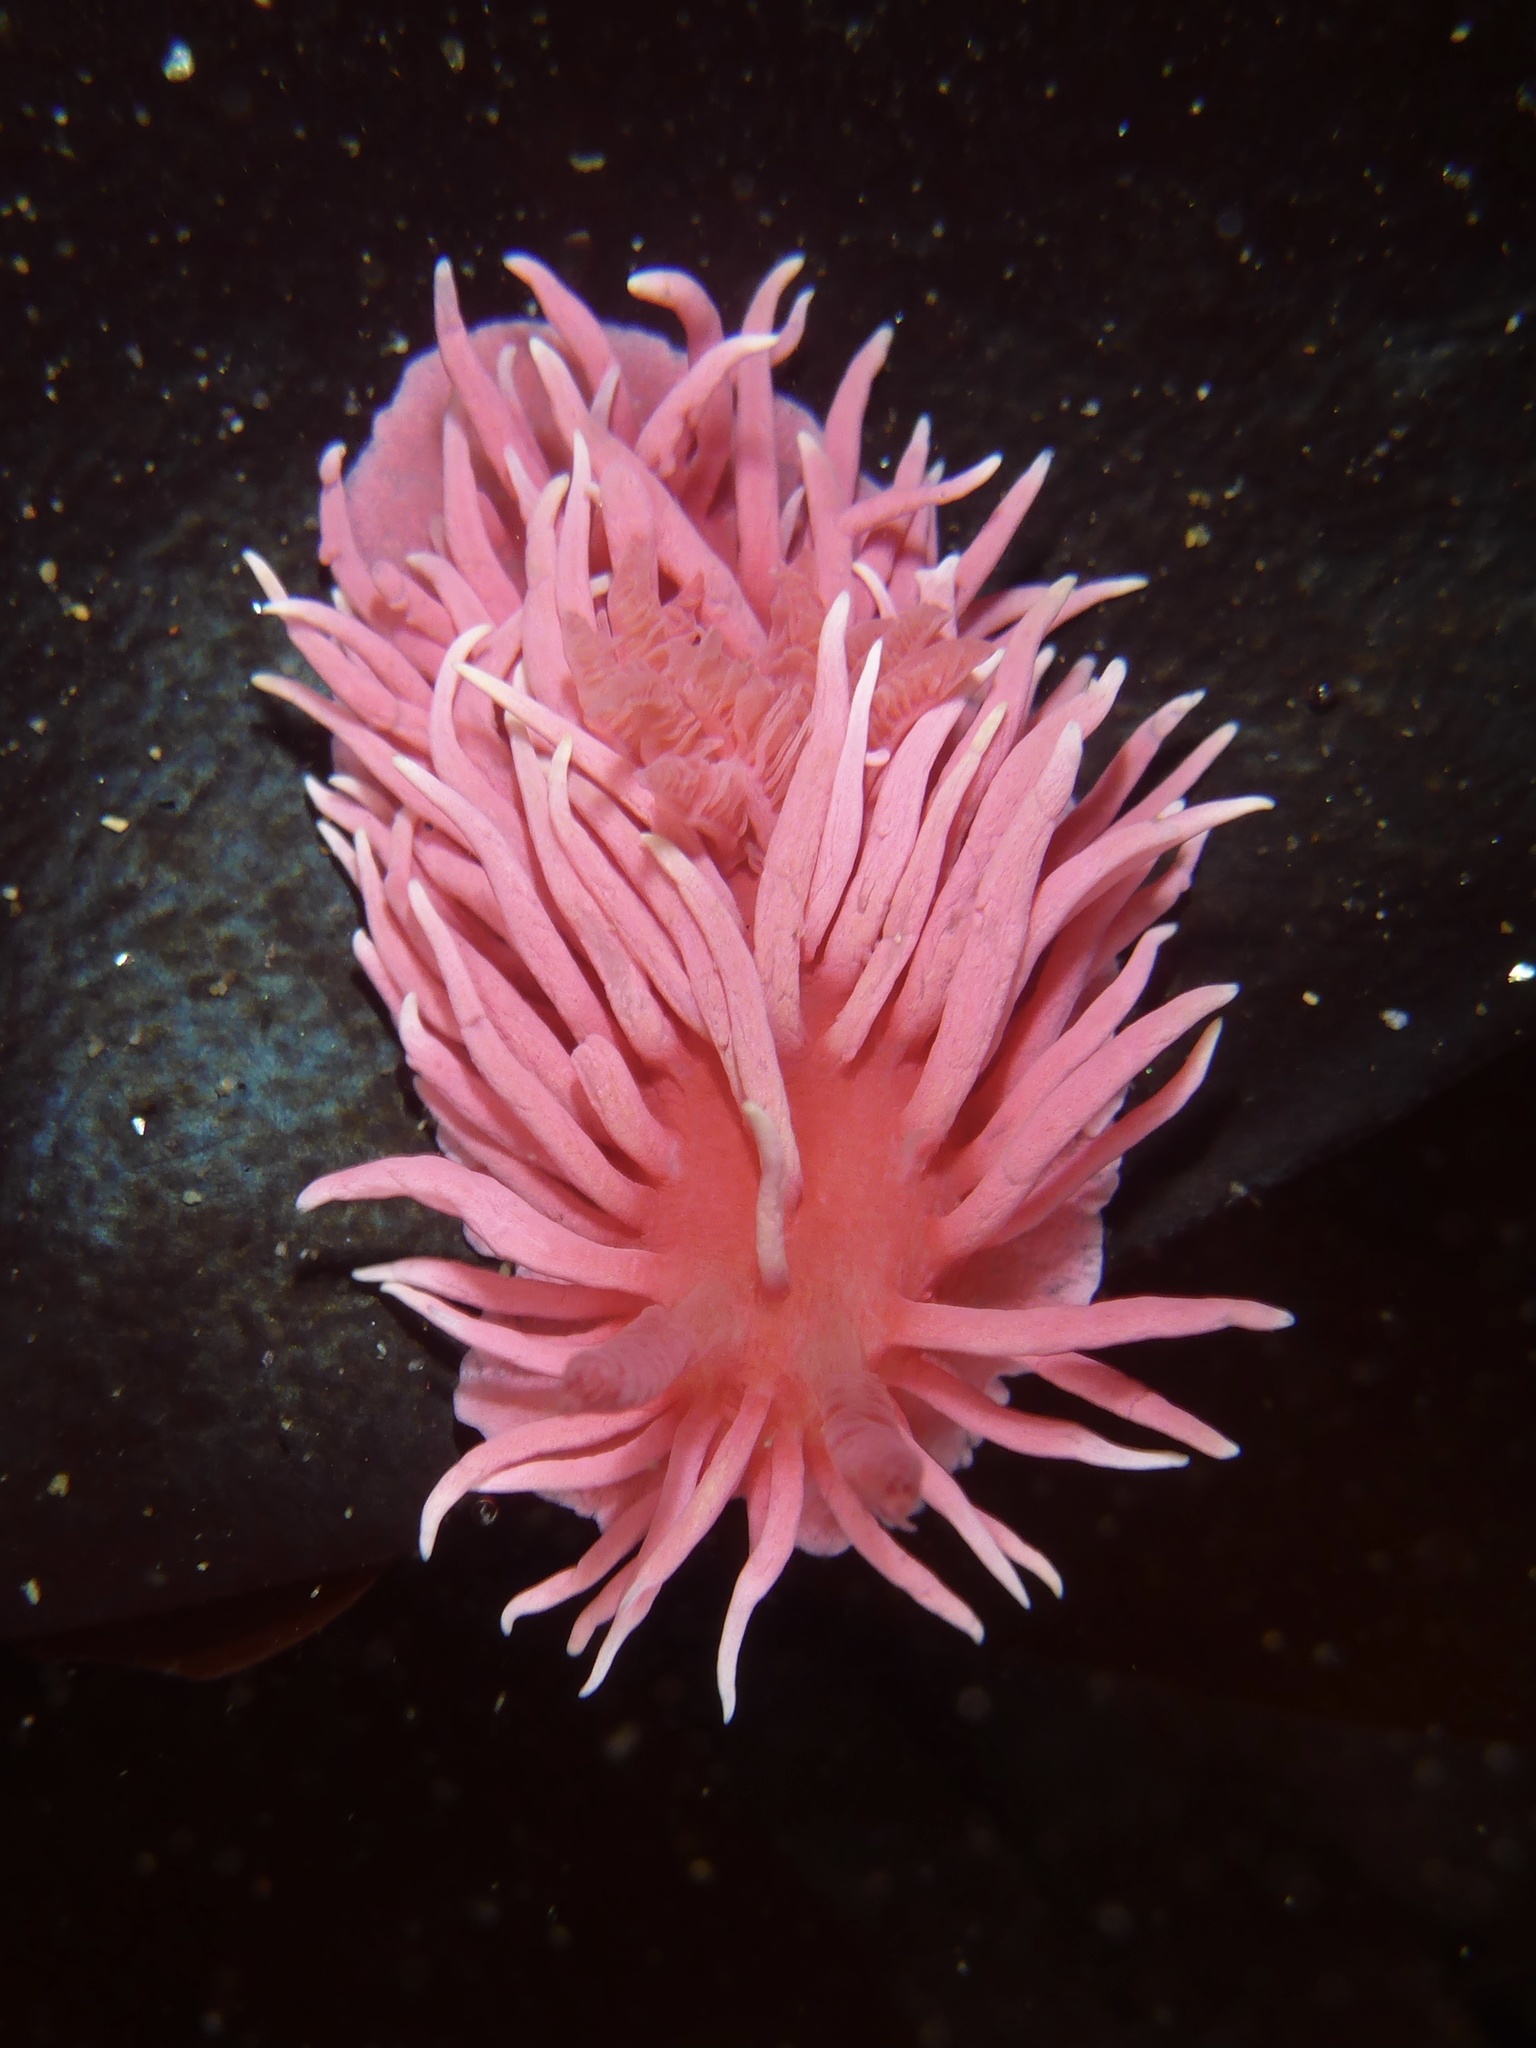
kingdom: Animalia
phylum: Mollusca
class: Gastropoda
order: Nudibranchia
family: Goniodorididae
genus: Okenia
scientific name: Okenia
